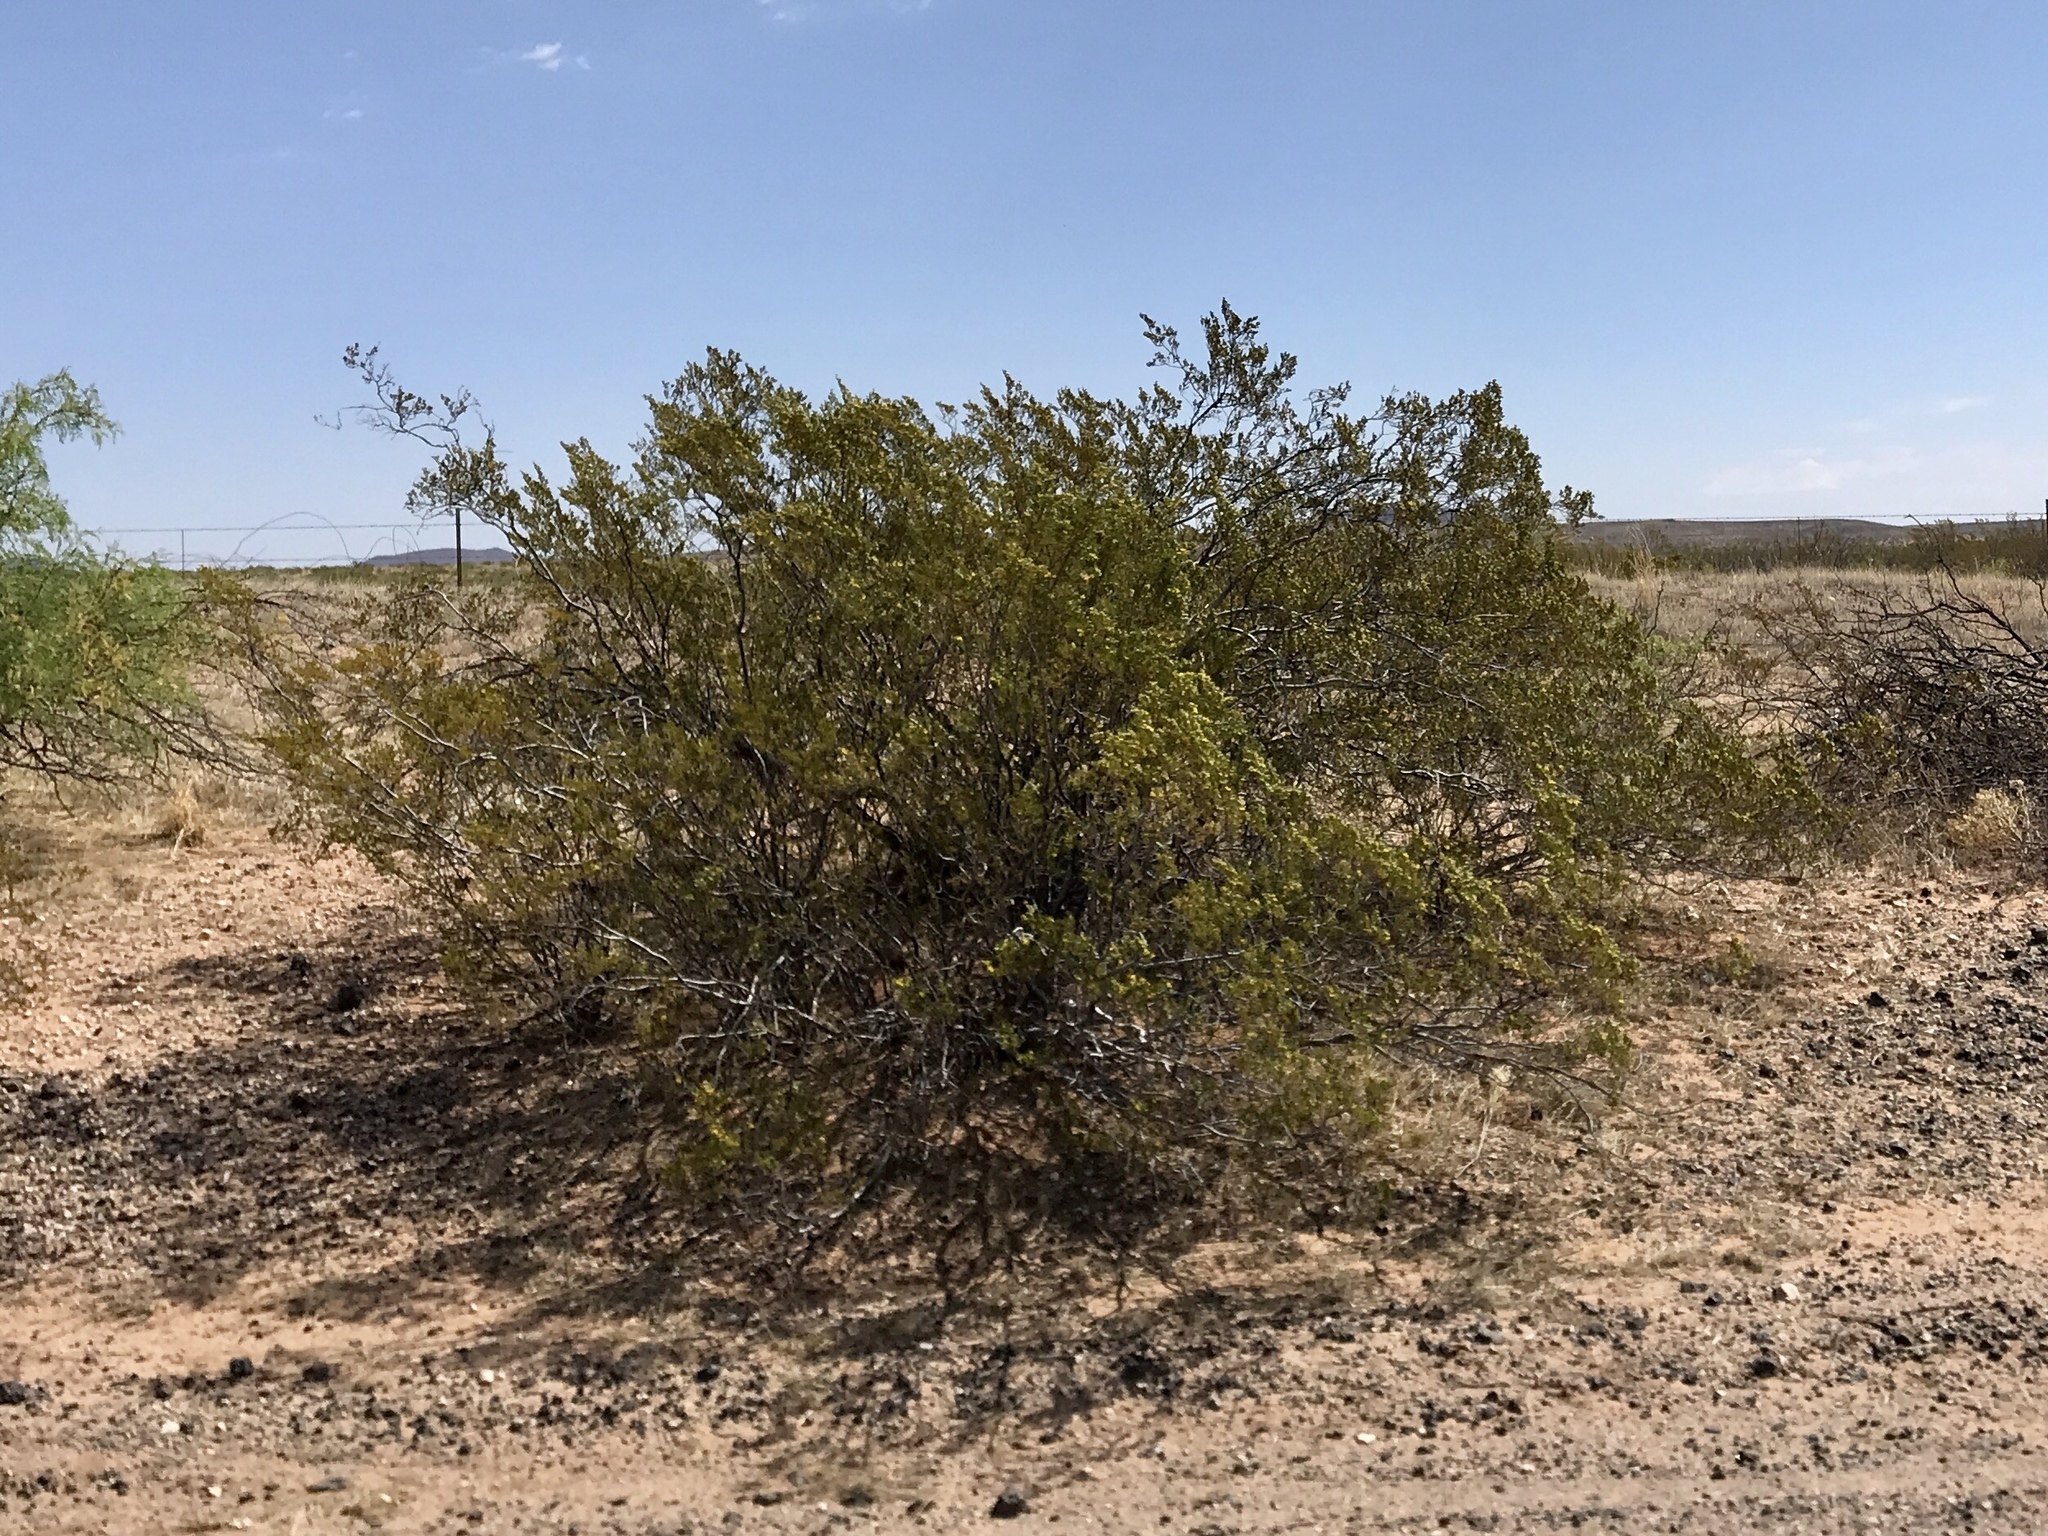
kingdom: Plantae
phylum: Tracheophyta
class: Magnoliopsida
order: Zygophyllales
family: Zygophyllaceae
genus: Larrea
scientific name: Larrea tridentata
